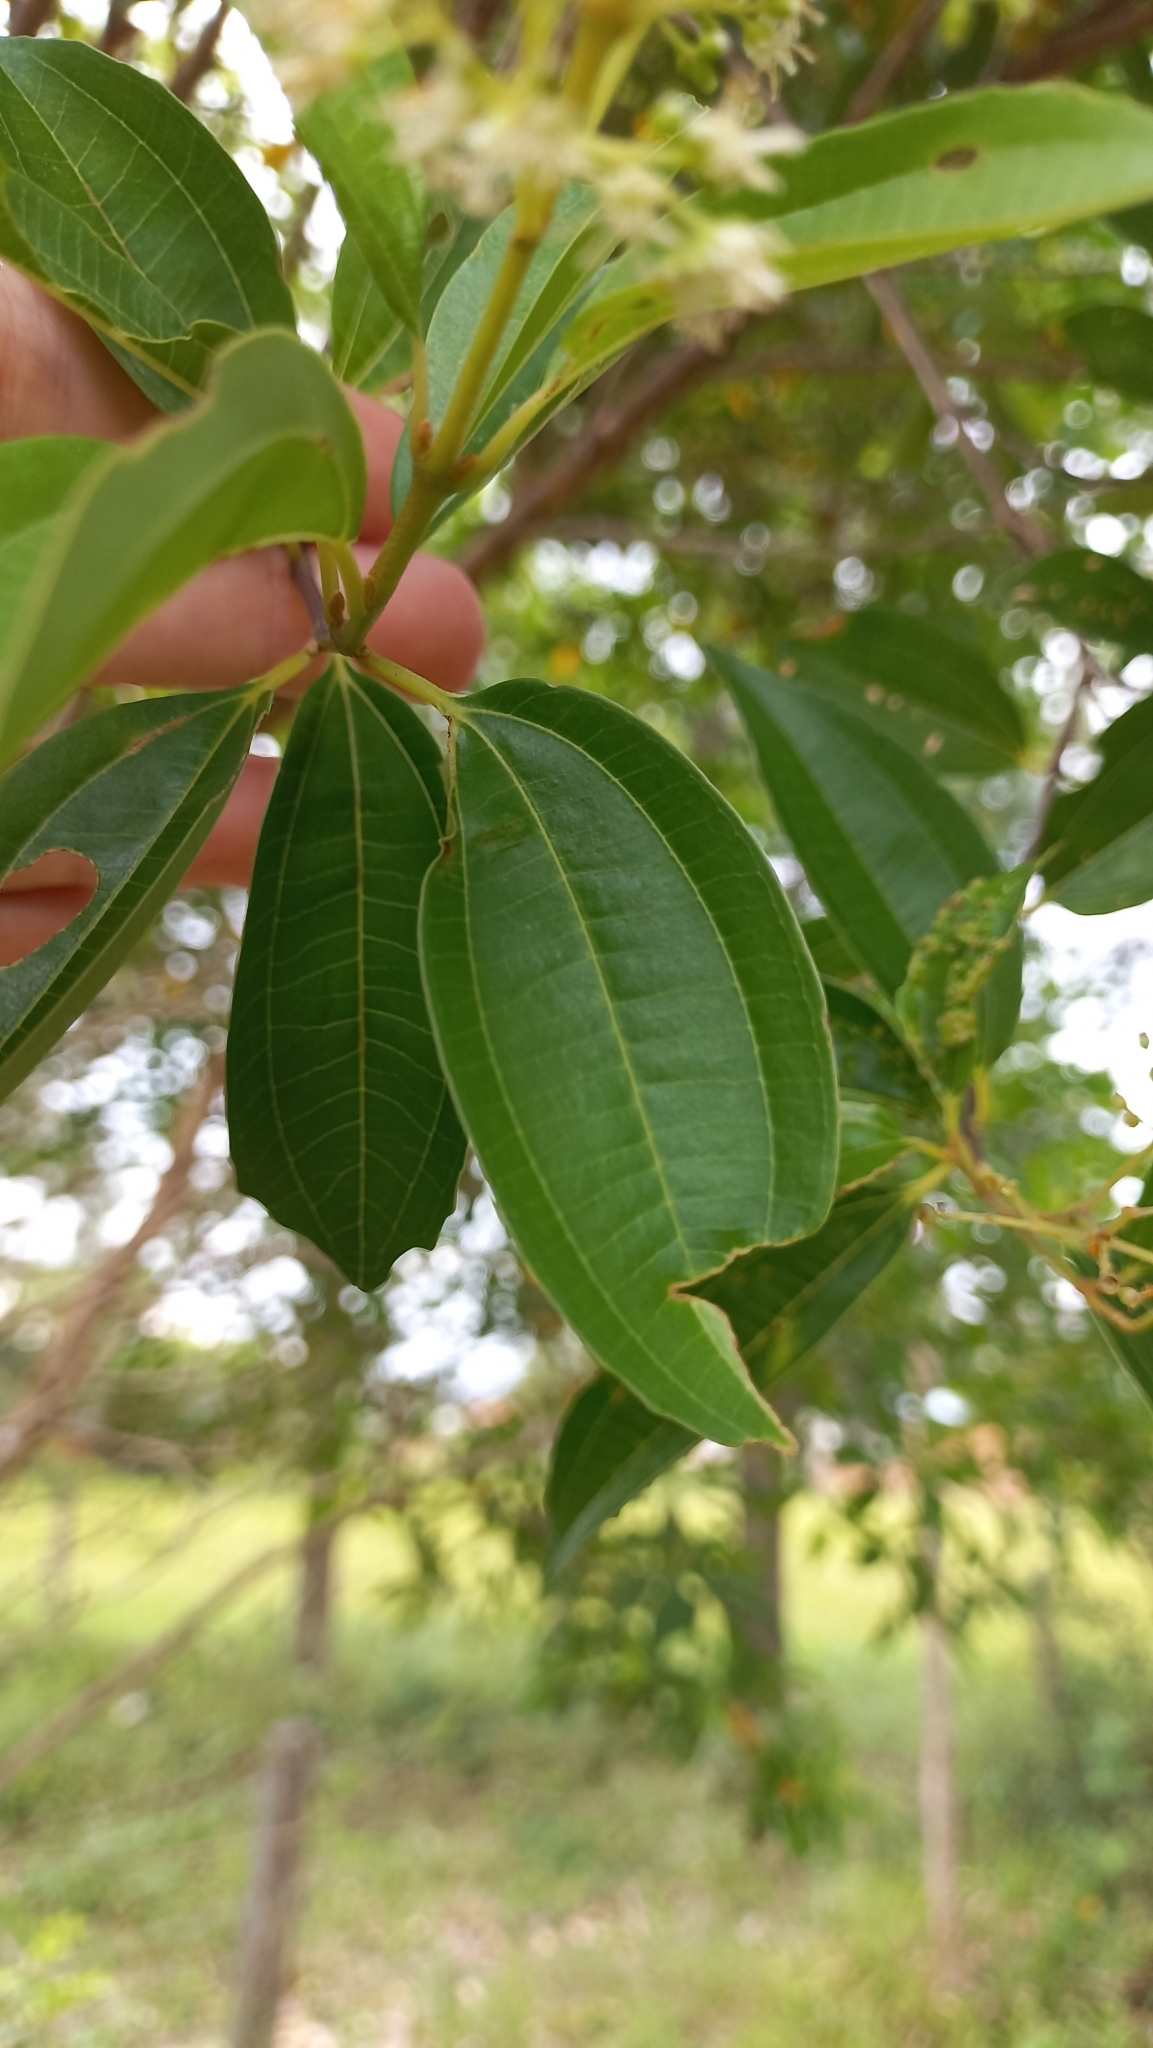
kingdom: Plantae
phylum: Tracheophyta
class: Magnoliopsida
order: Myrtales
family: Melastomataceae
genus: Miconia
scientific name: Miconia ligustroides
